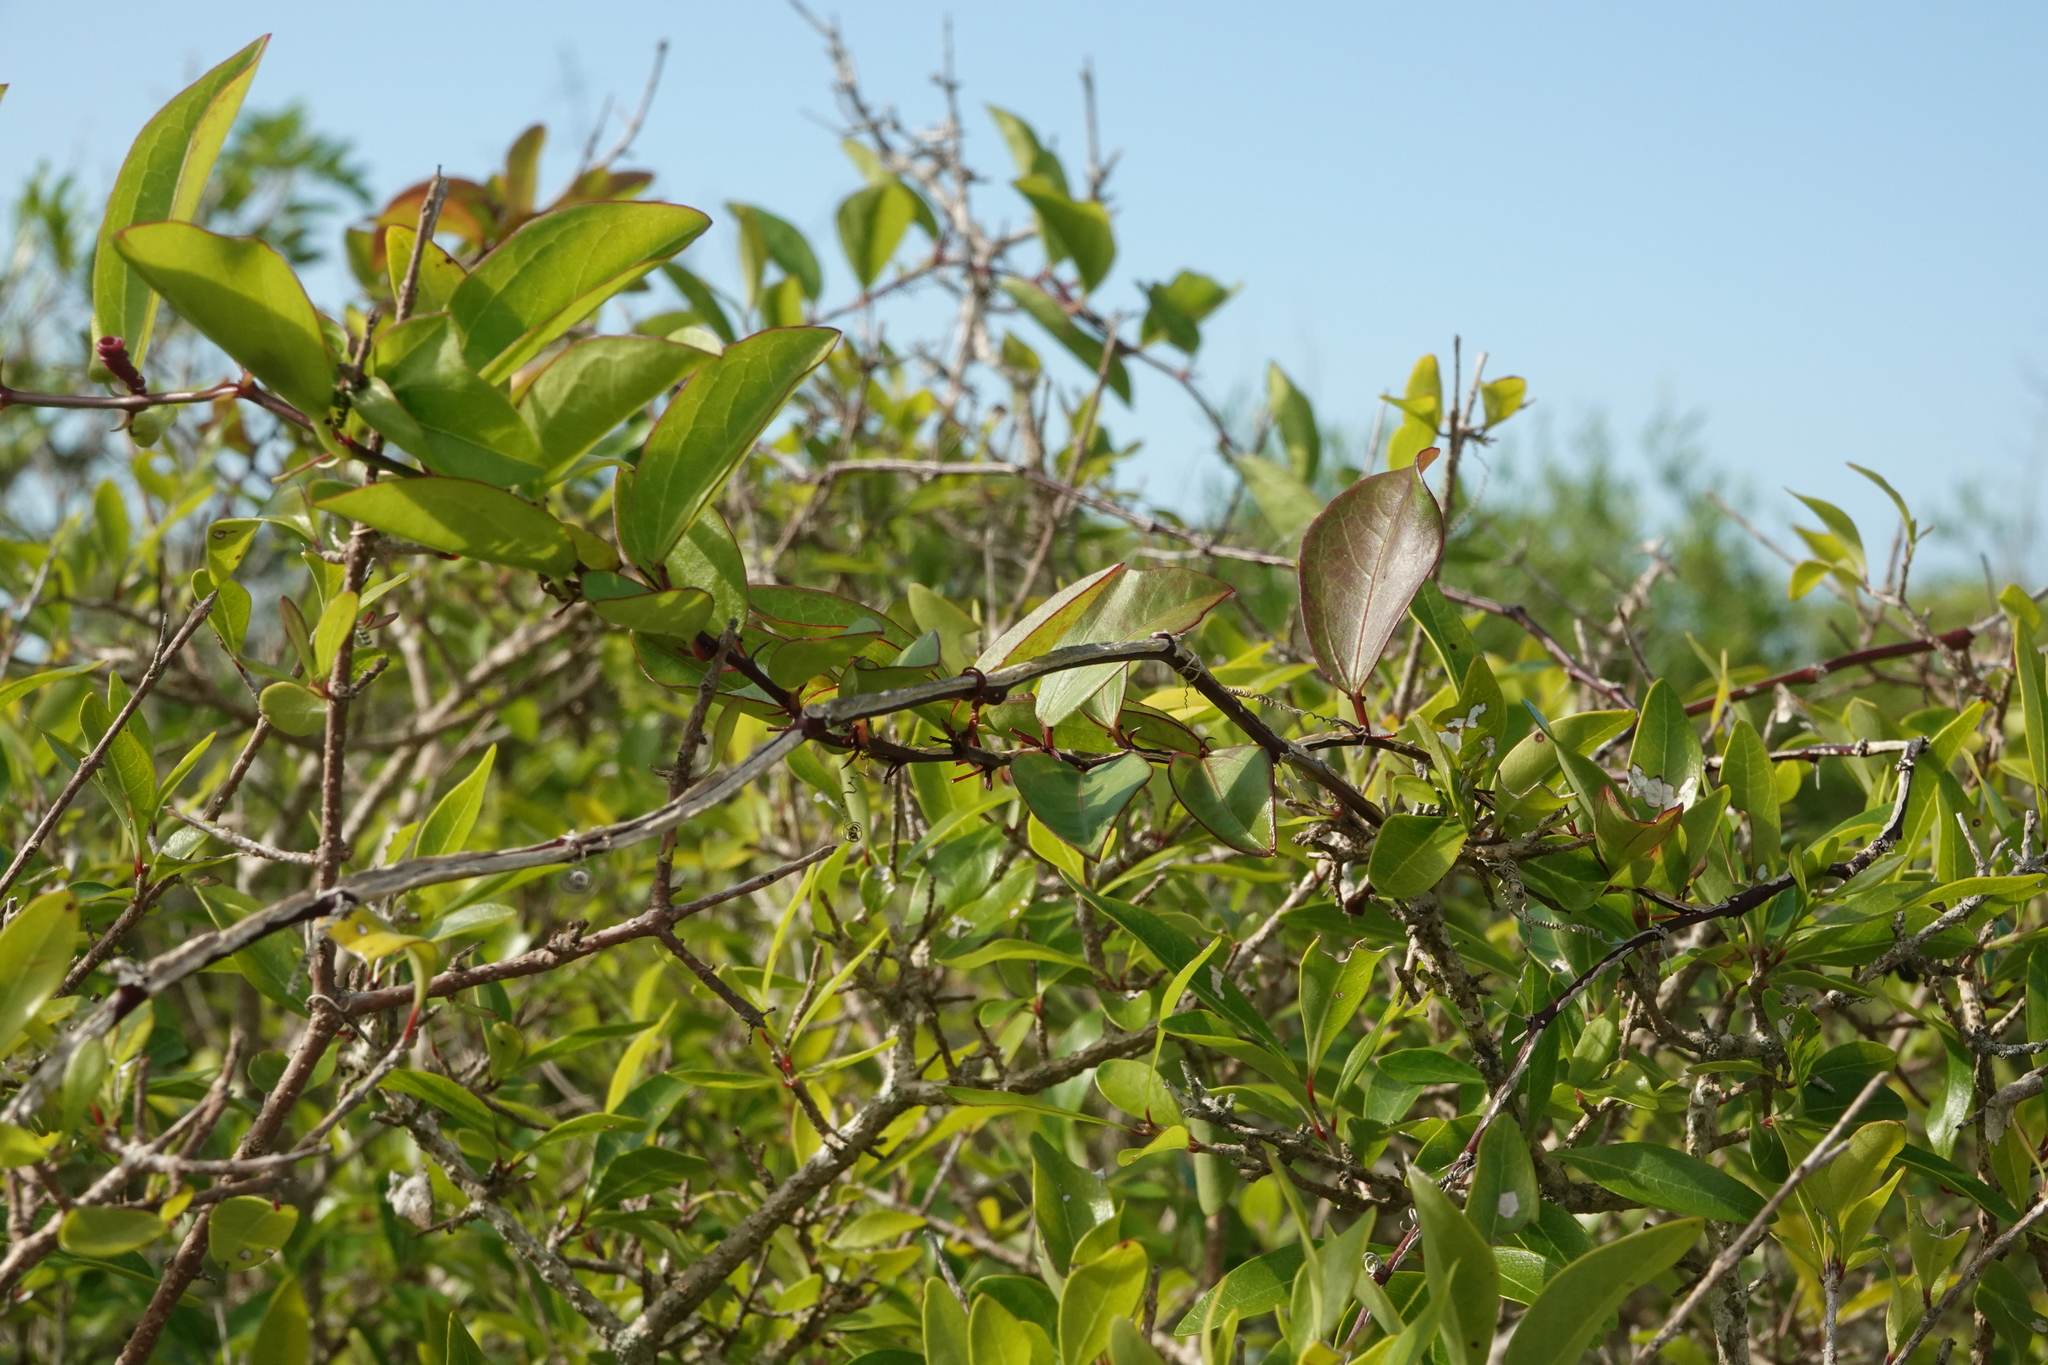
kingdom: Plantae
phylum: Tracheophyta
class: Magnoliopsida
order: Malpighiales
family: Passifloraceae
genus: Passiflora
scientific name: Passiflora pallida
